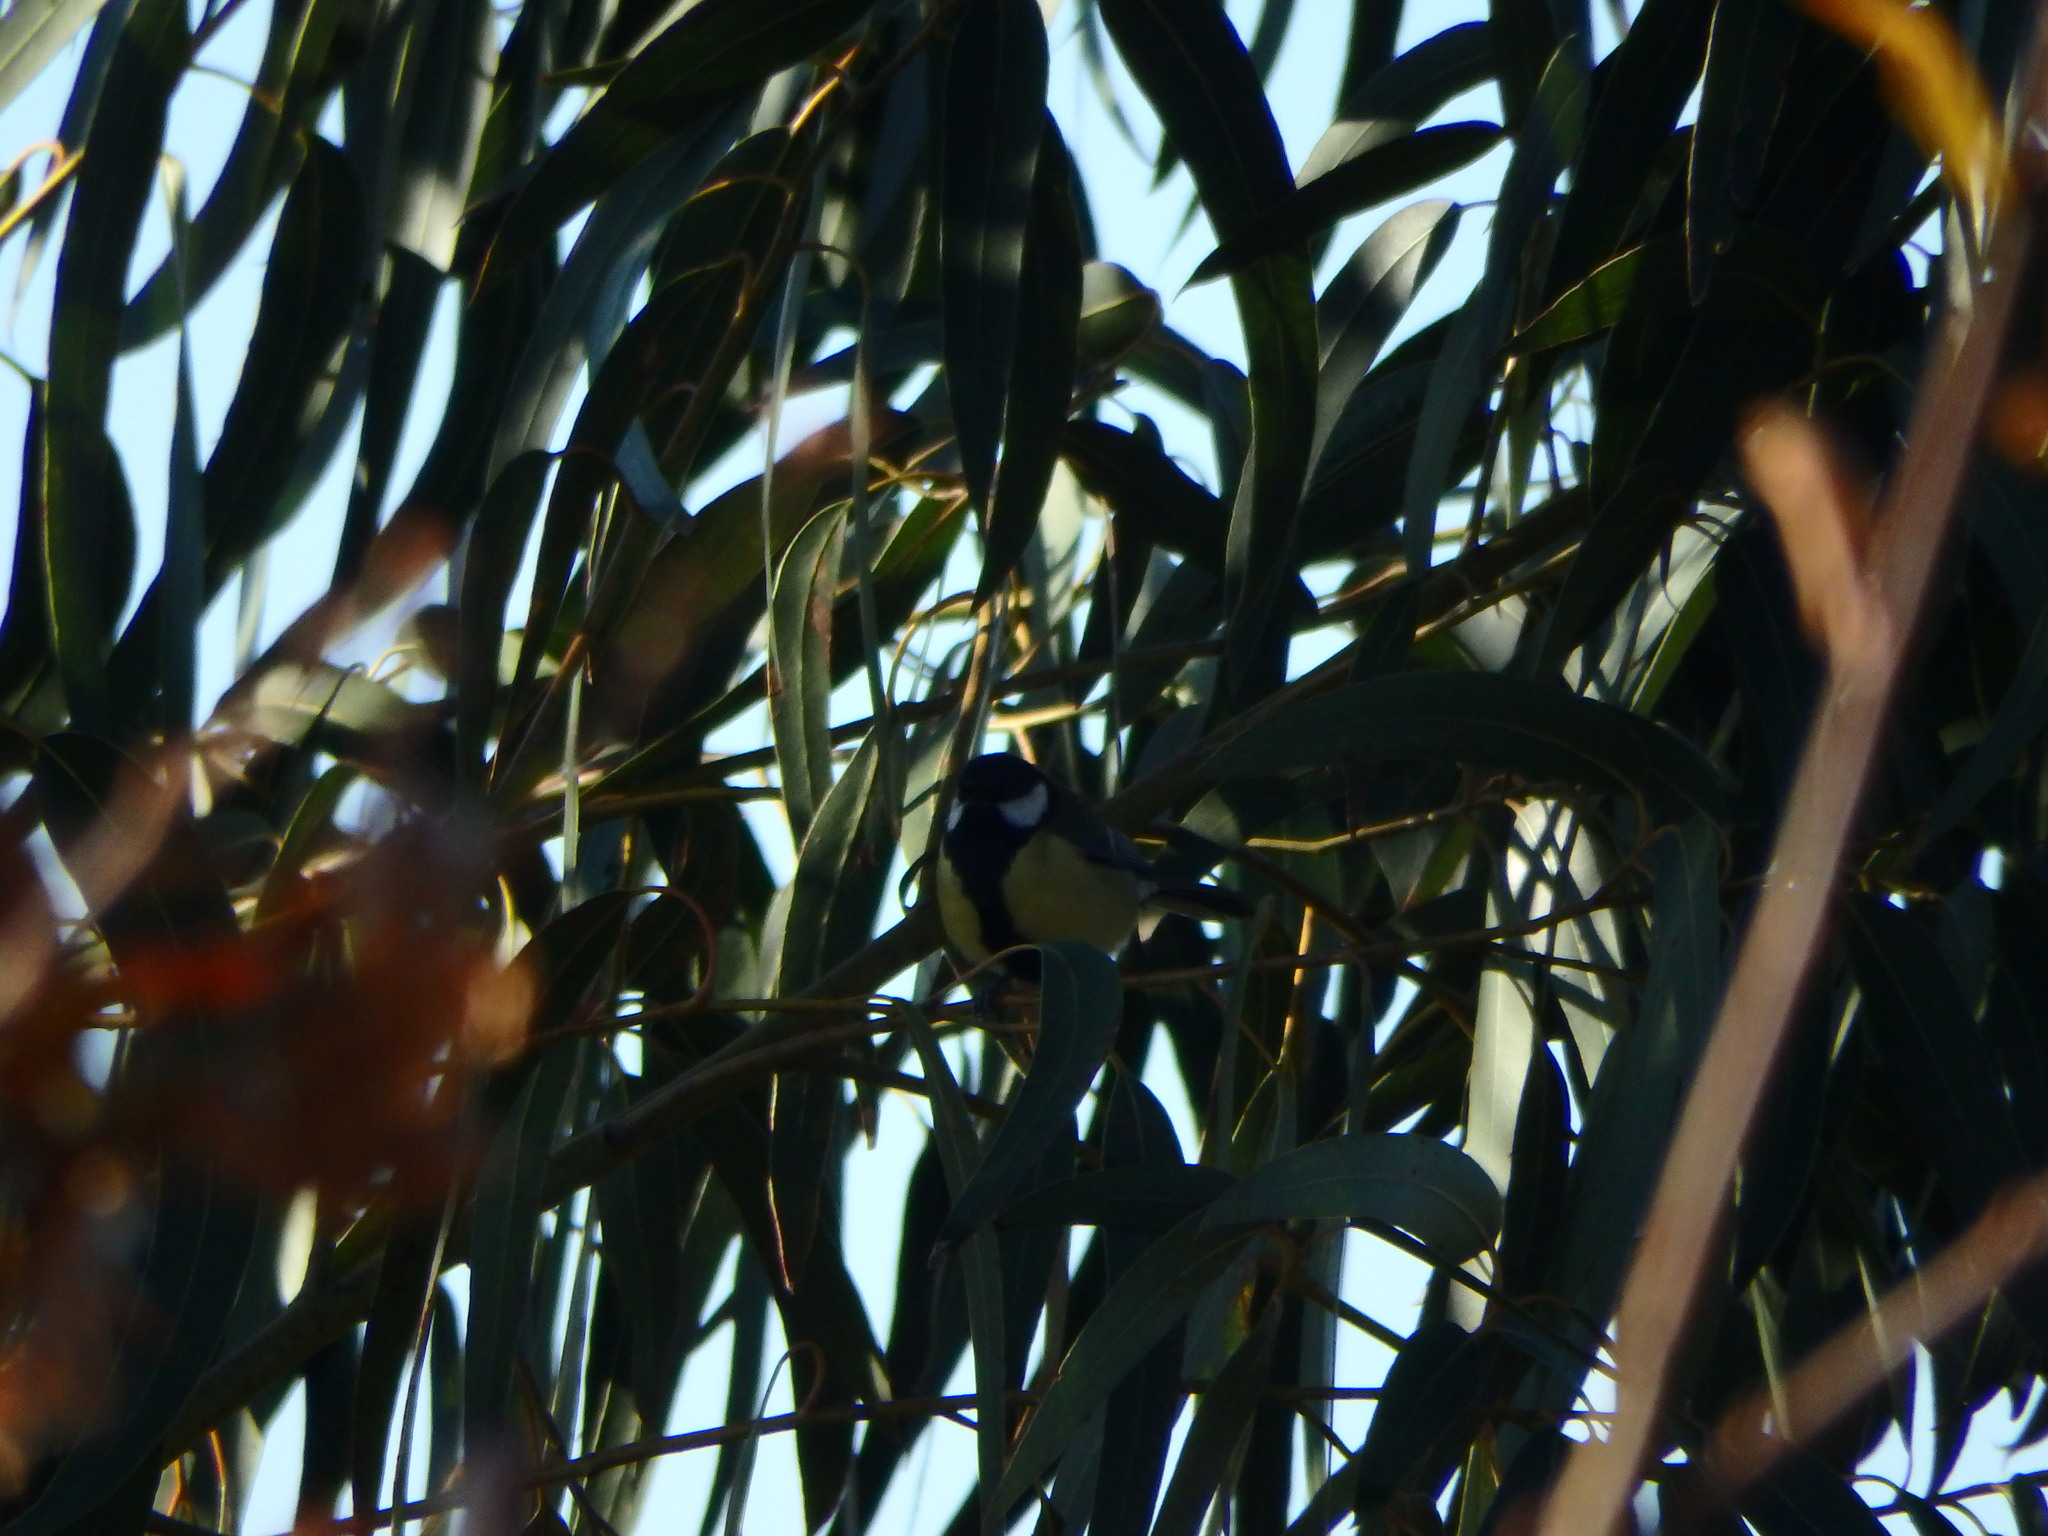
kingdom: Animalia
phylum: Chordata
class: Aves
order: Passeriformes
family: Paridae
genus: Parus
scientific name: Parus major
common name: Great tit
